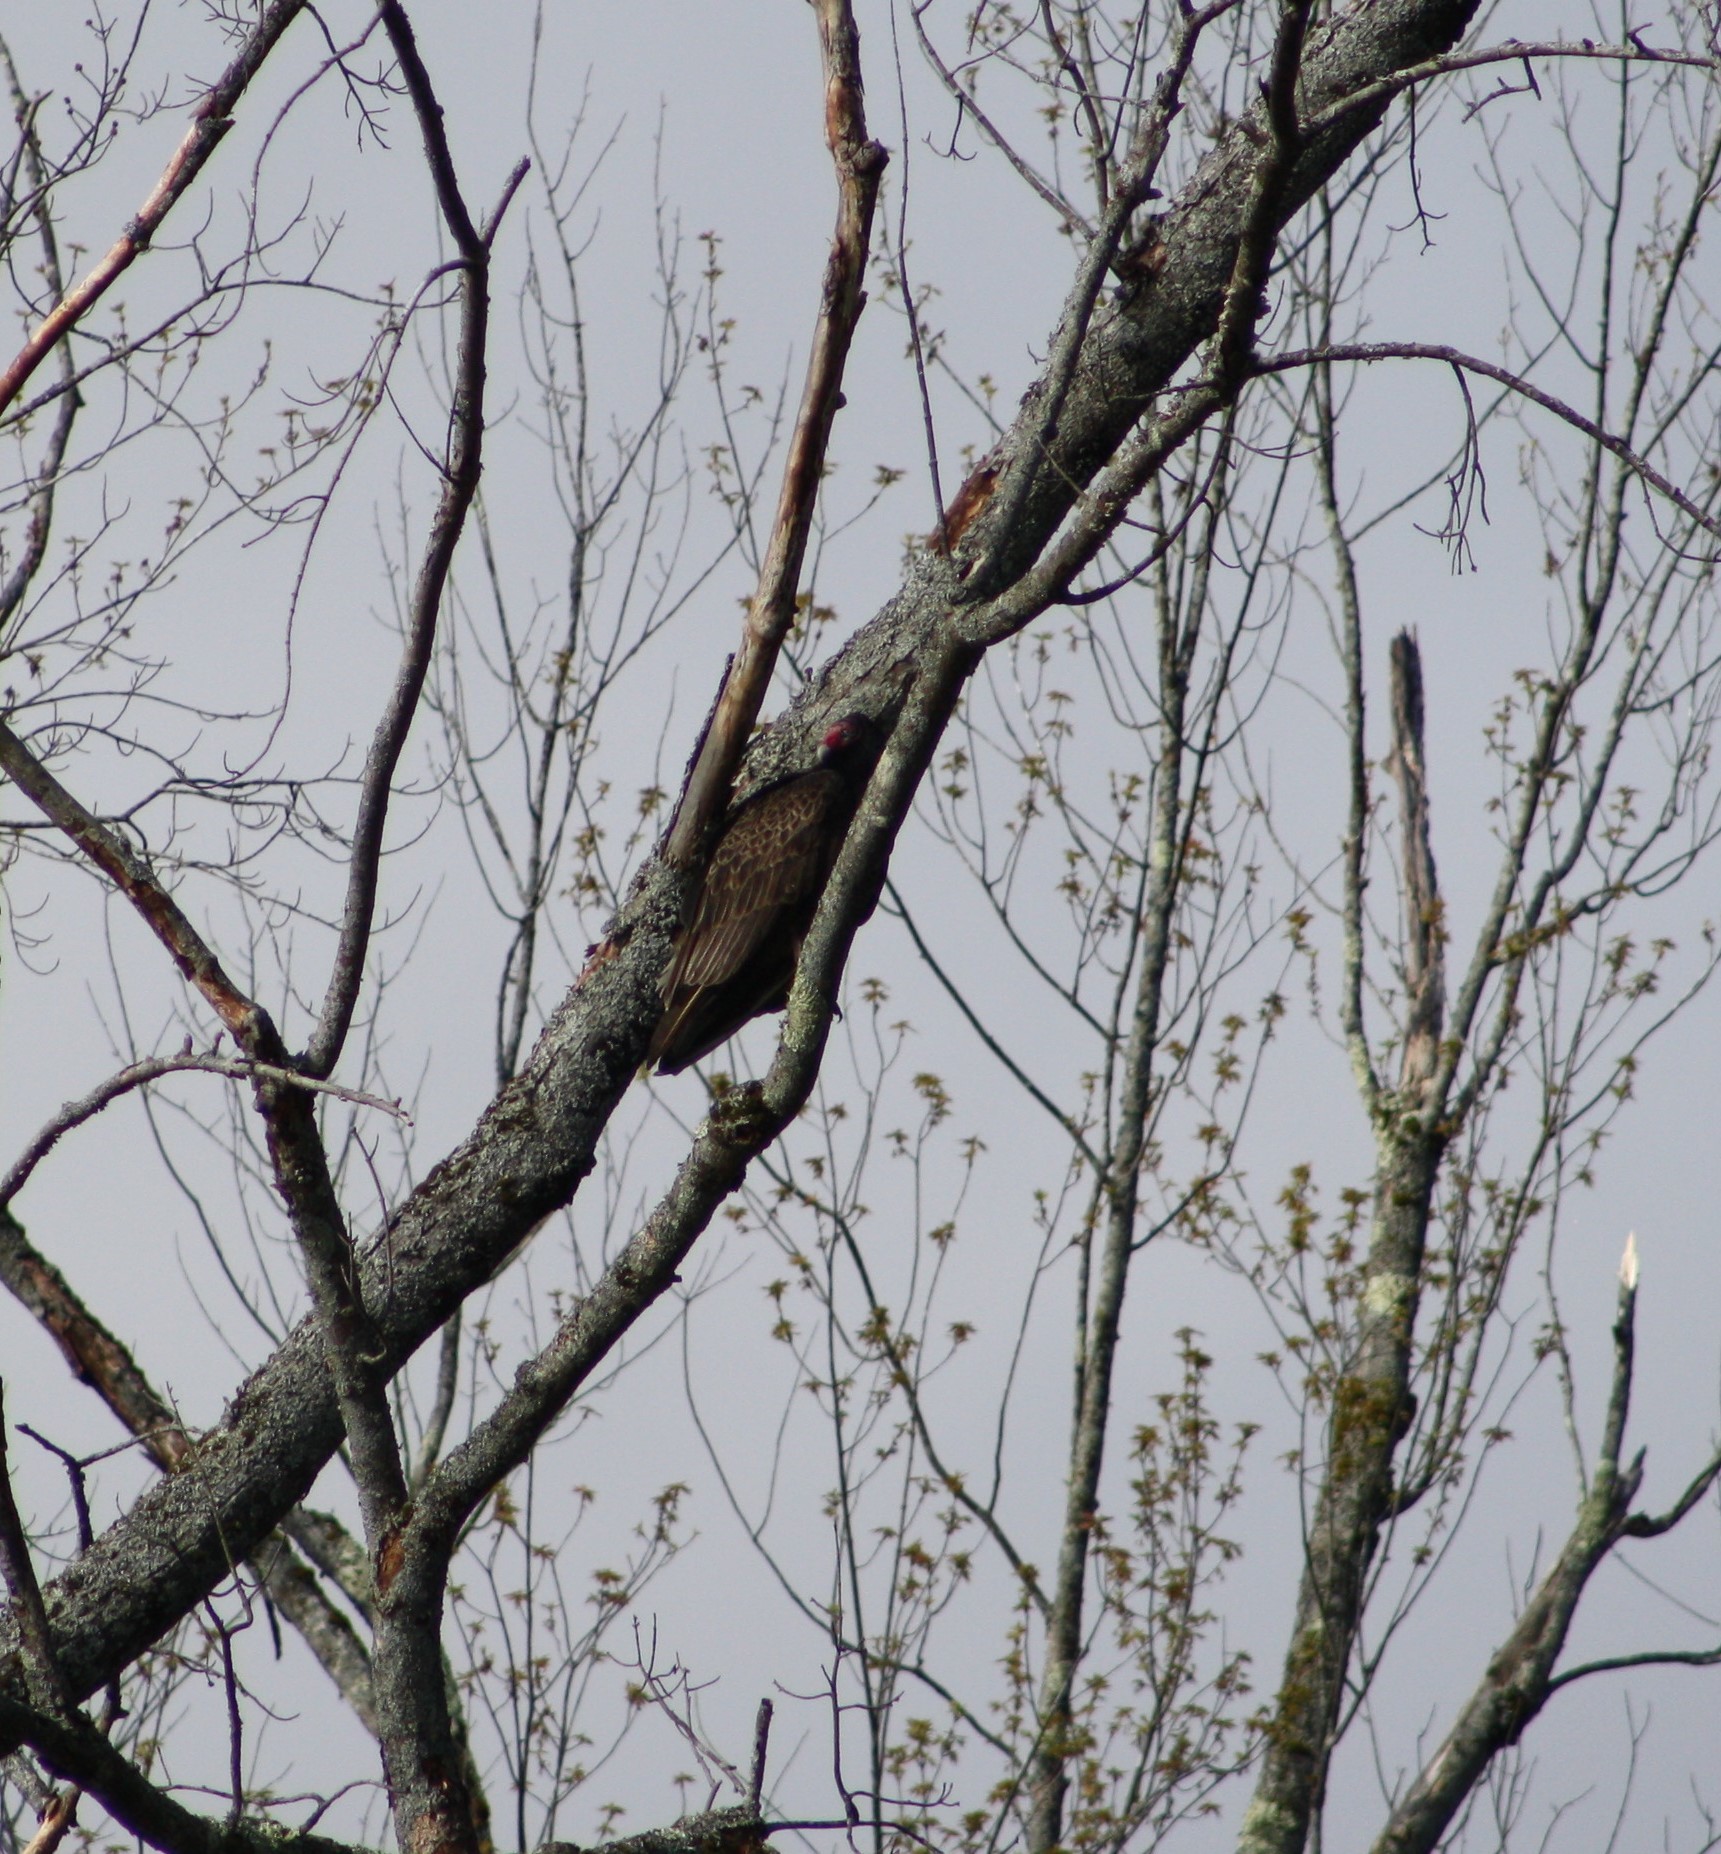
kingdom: Animalia
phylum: Chordata
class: Aves
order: Accipitriformes
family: Cathartidae
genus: Cathartes
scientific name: Cathartes aura
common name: Turkey vulture
